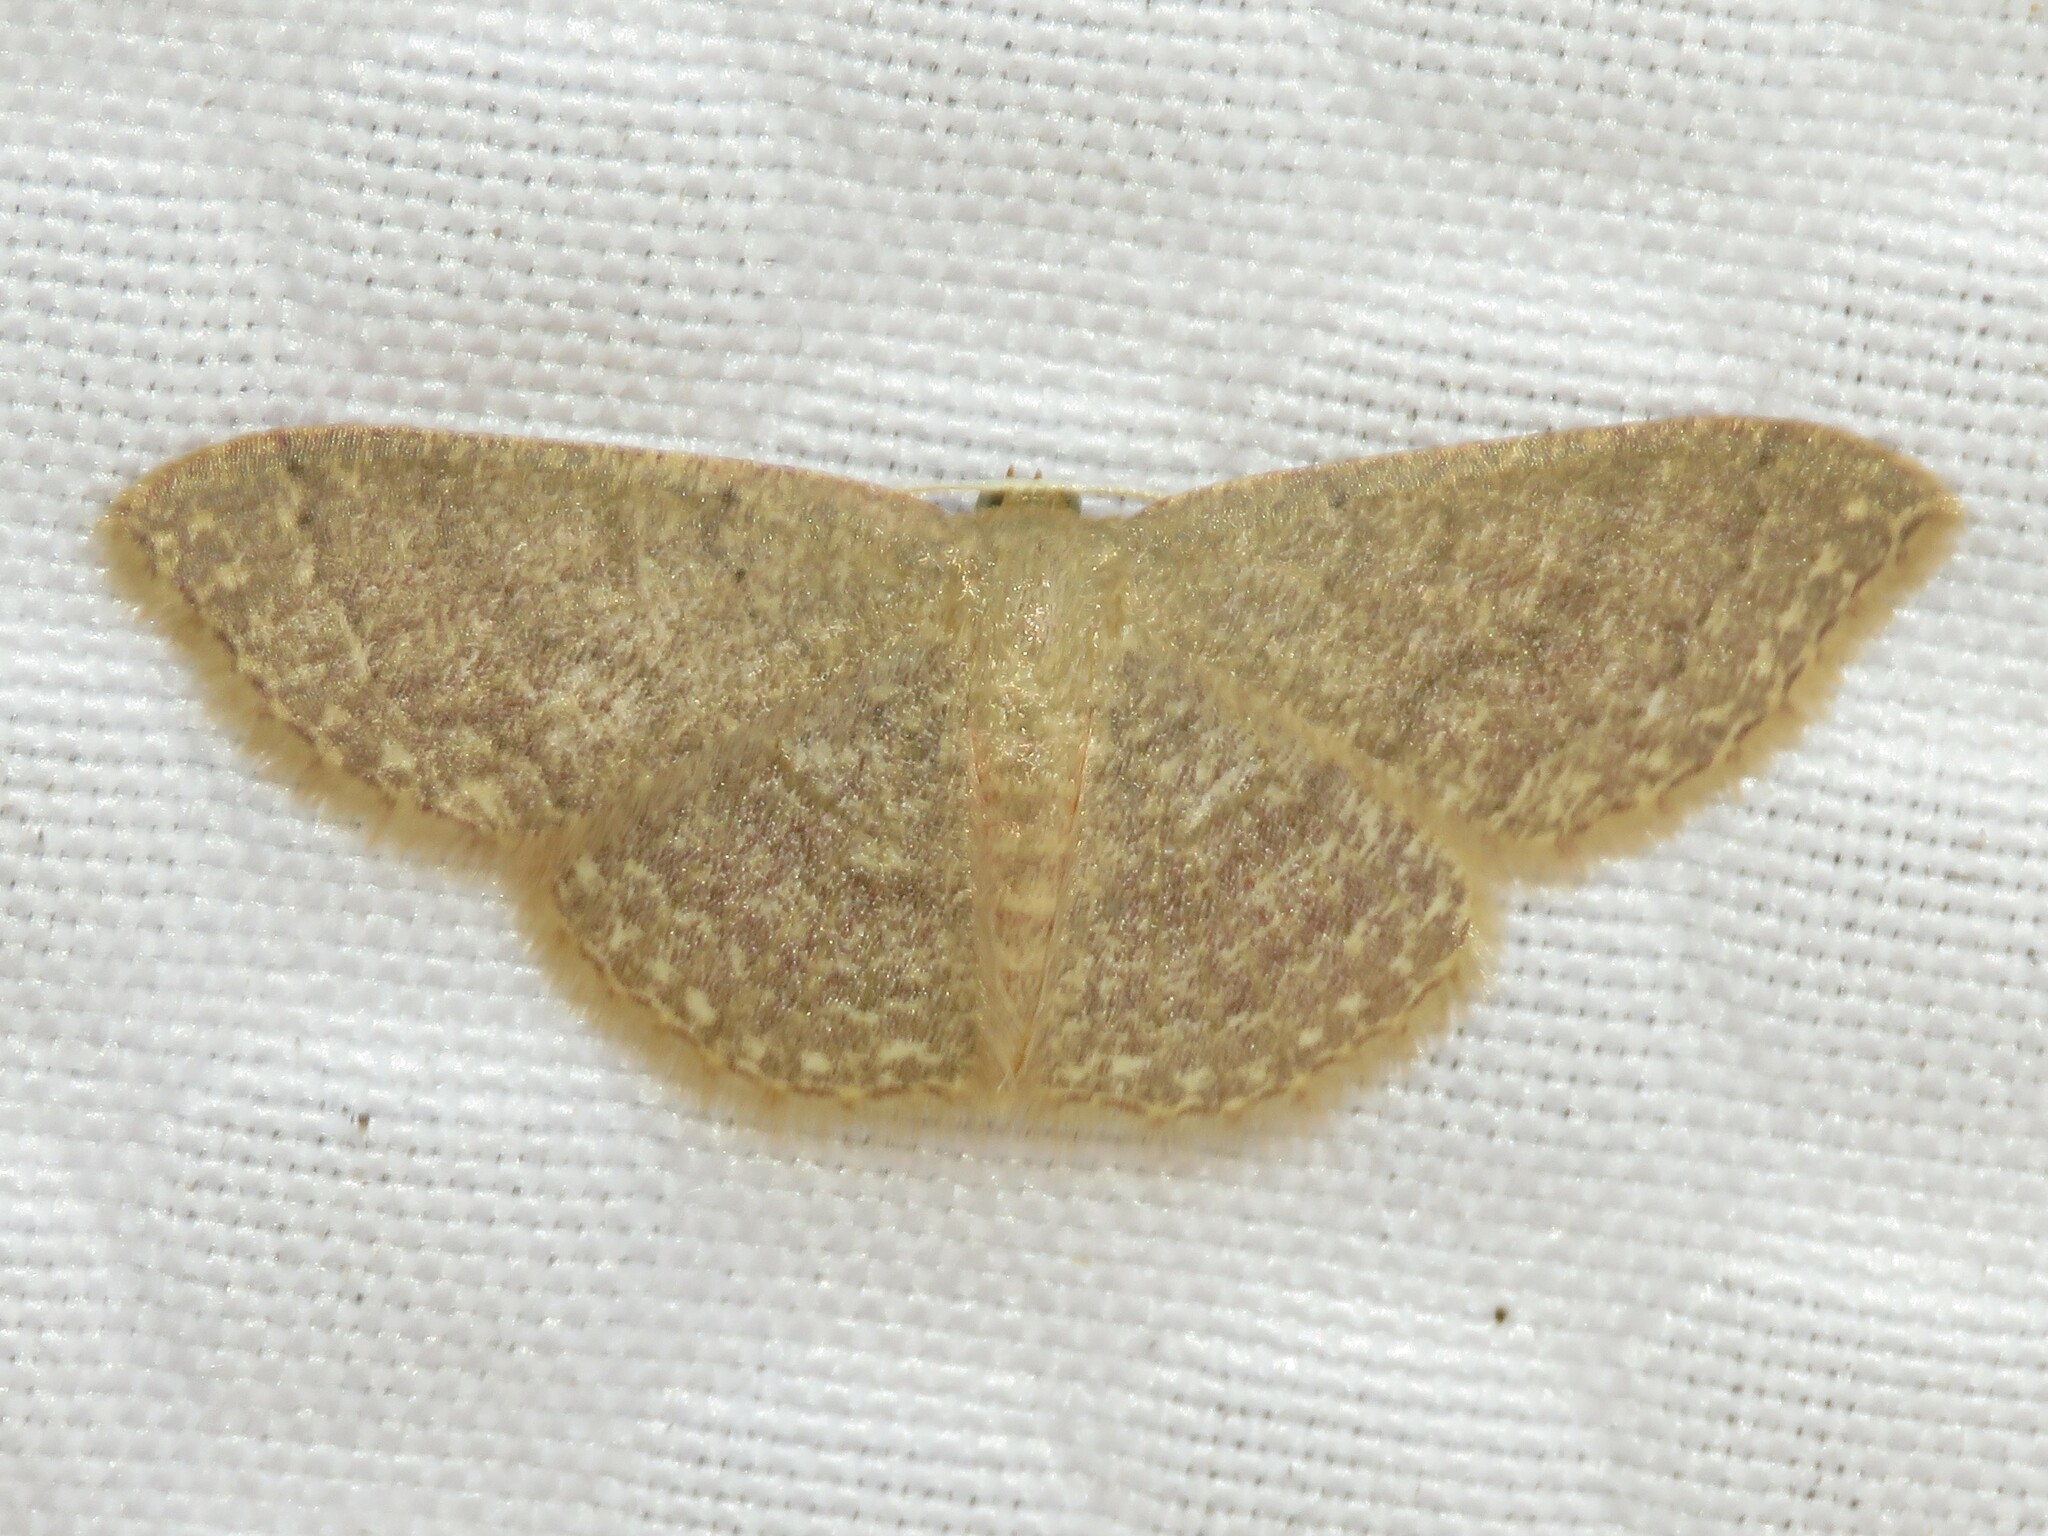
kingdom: Animalia
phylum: Arthropoda
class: Insecta
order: Lepidoptera
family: Geometridae
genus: Pleuroprucha
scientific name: Pleuroprucha insulsaria
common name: Common tan wave
